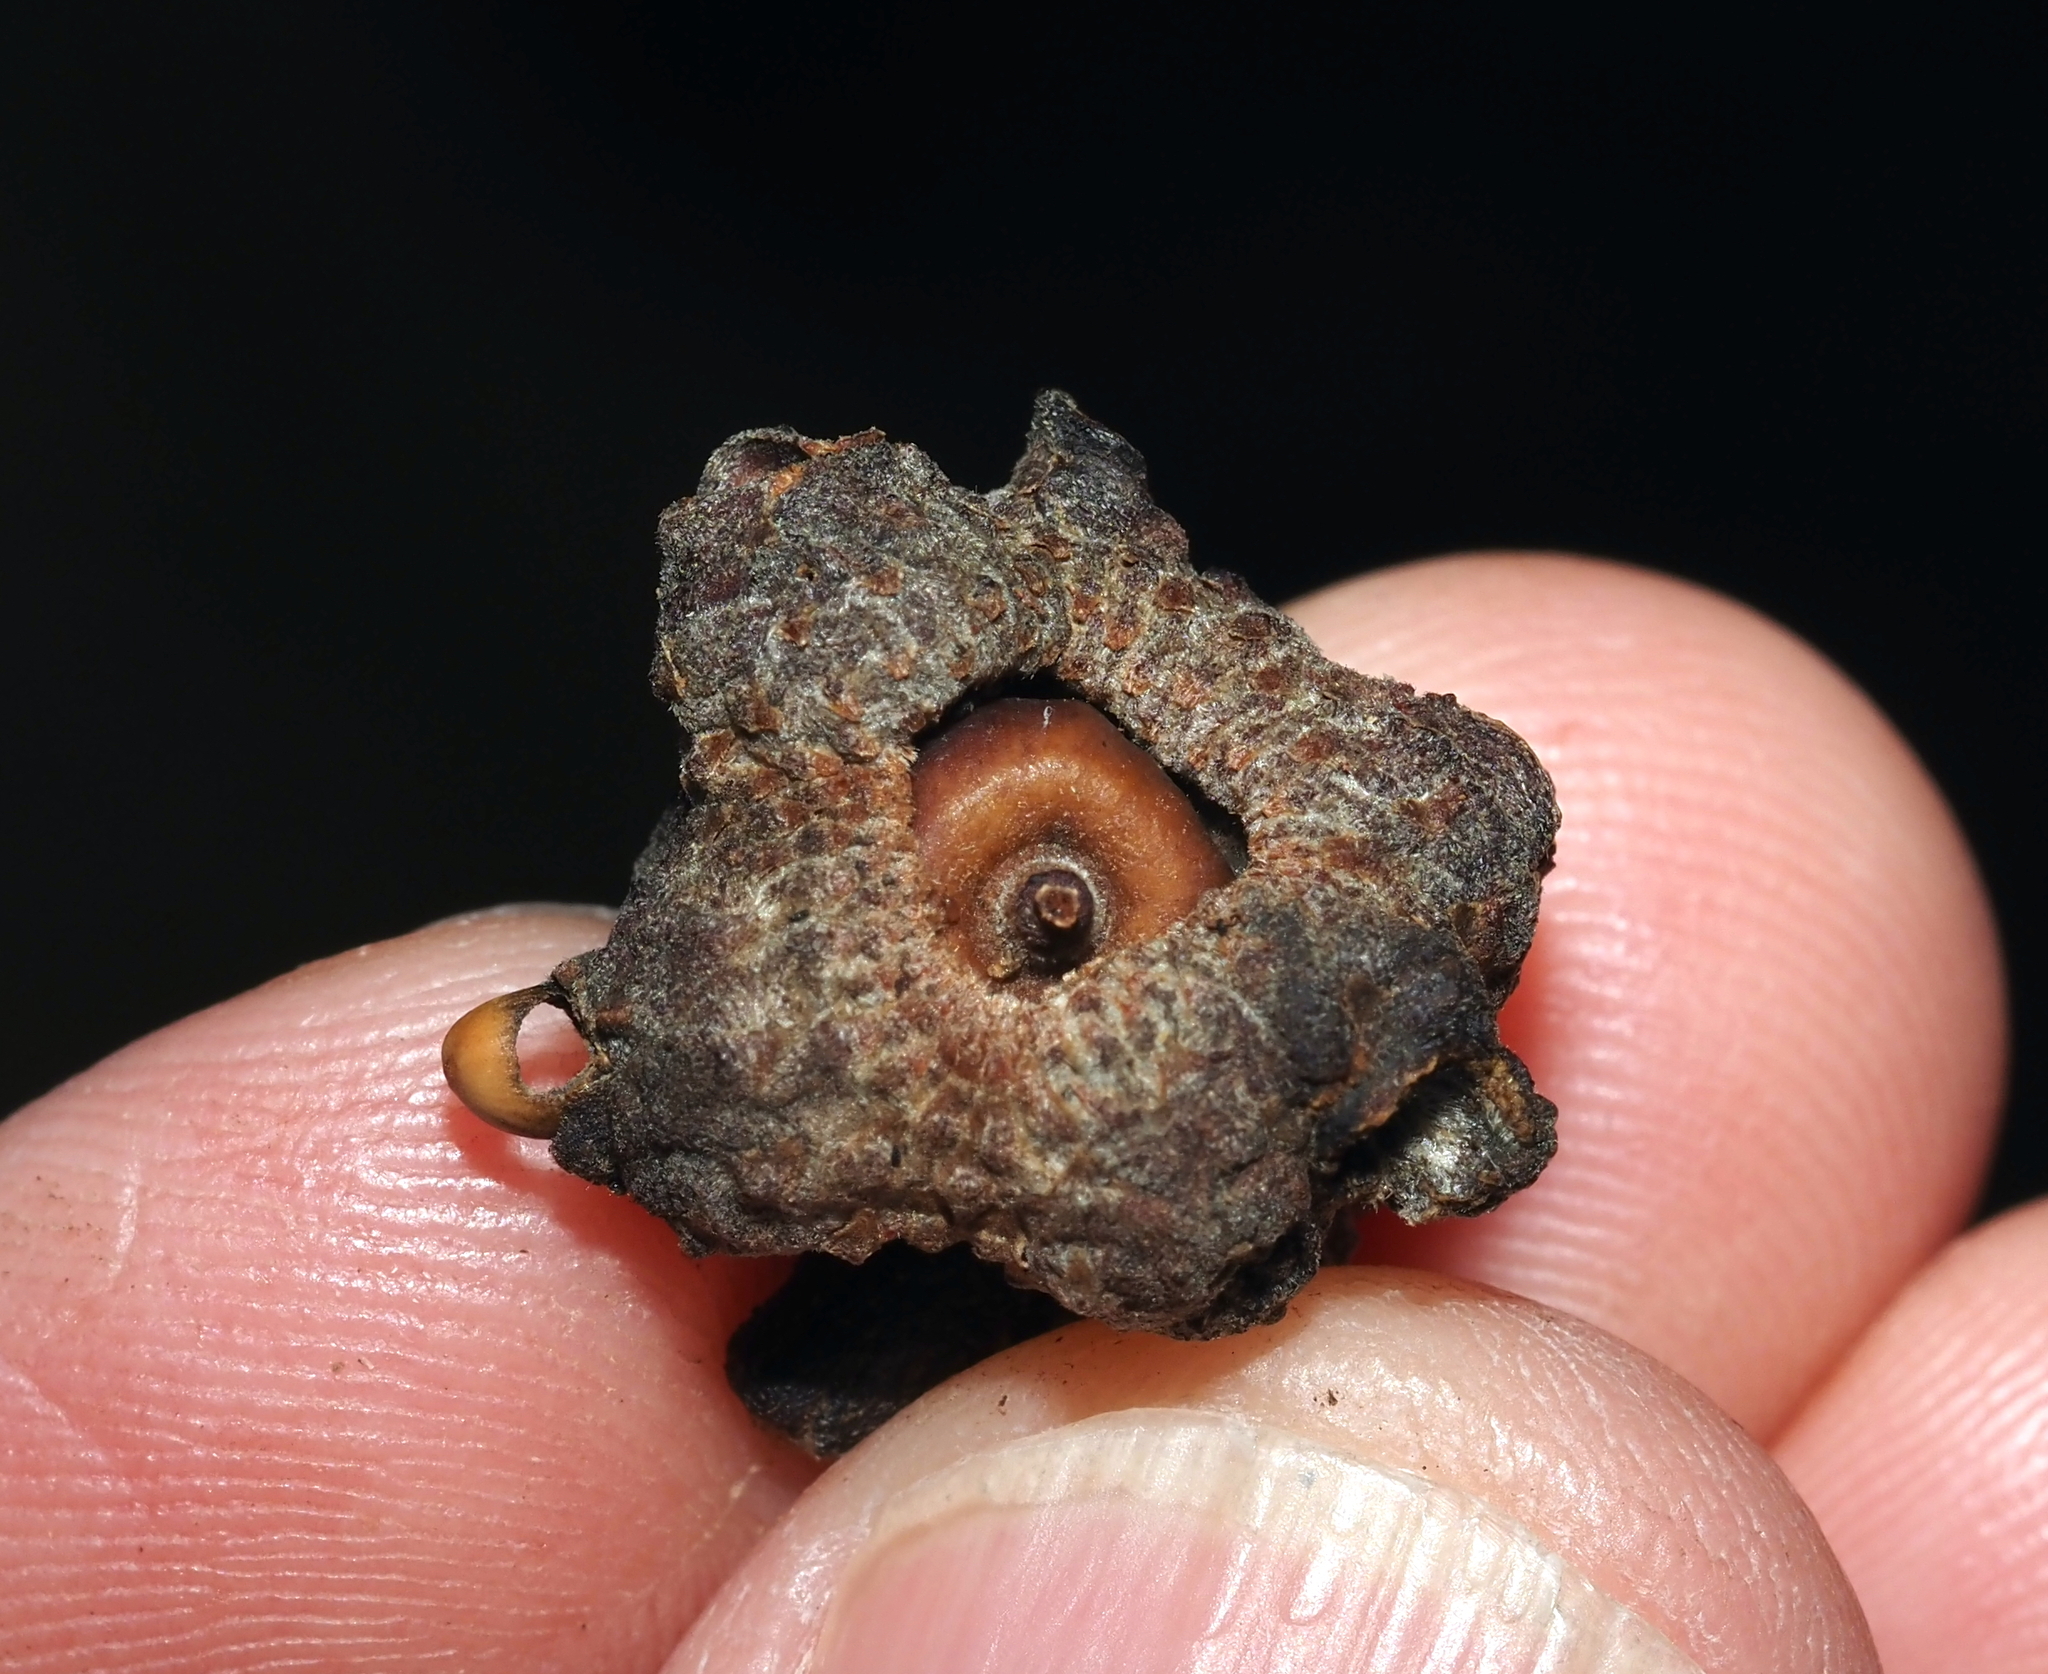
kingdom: Animalia
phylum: Arthropoda
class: Insecta
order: Hymenoptera
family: Cynipidae
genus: Callirhytis
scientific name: Callirhytis glandium
